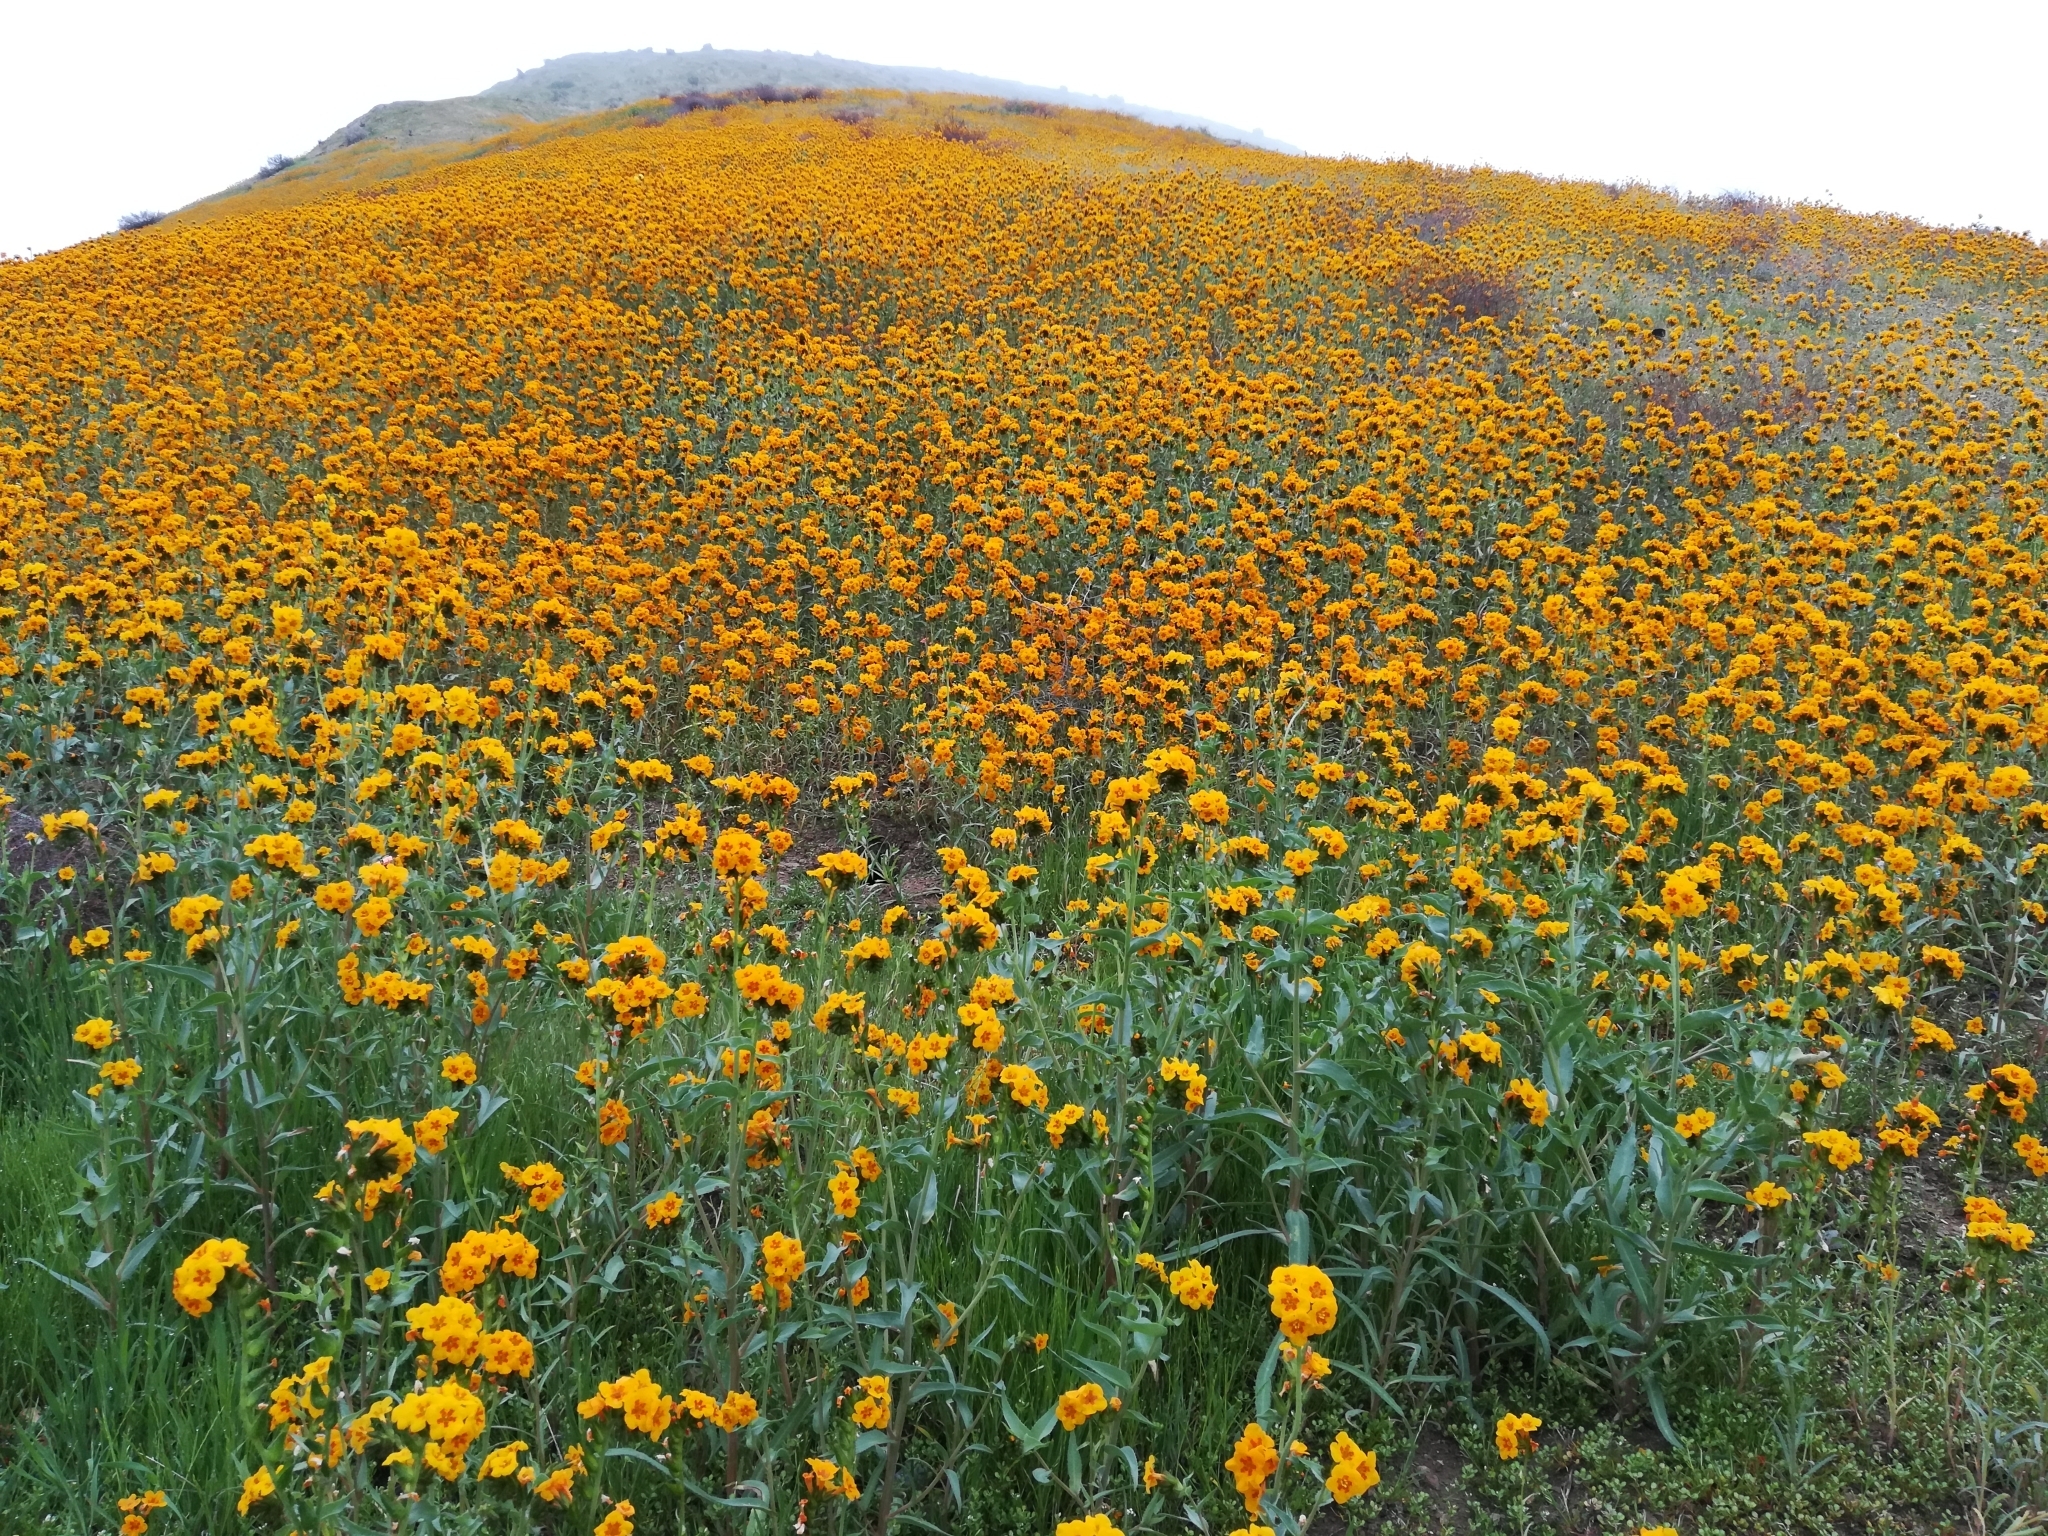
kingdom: Plantae
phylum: Tracheophyta
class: Magnoliopsida
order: Boraginales
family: Boraginaceae
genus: Amsinckia
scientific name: Amsinckia vernicosa
